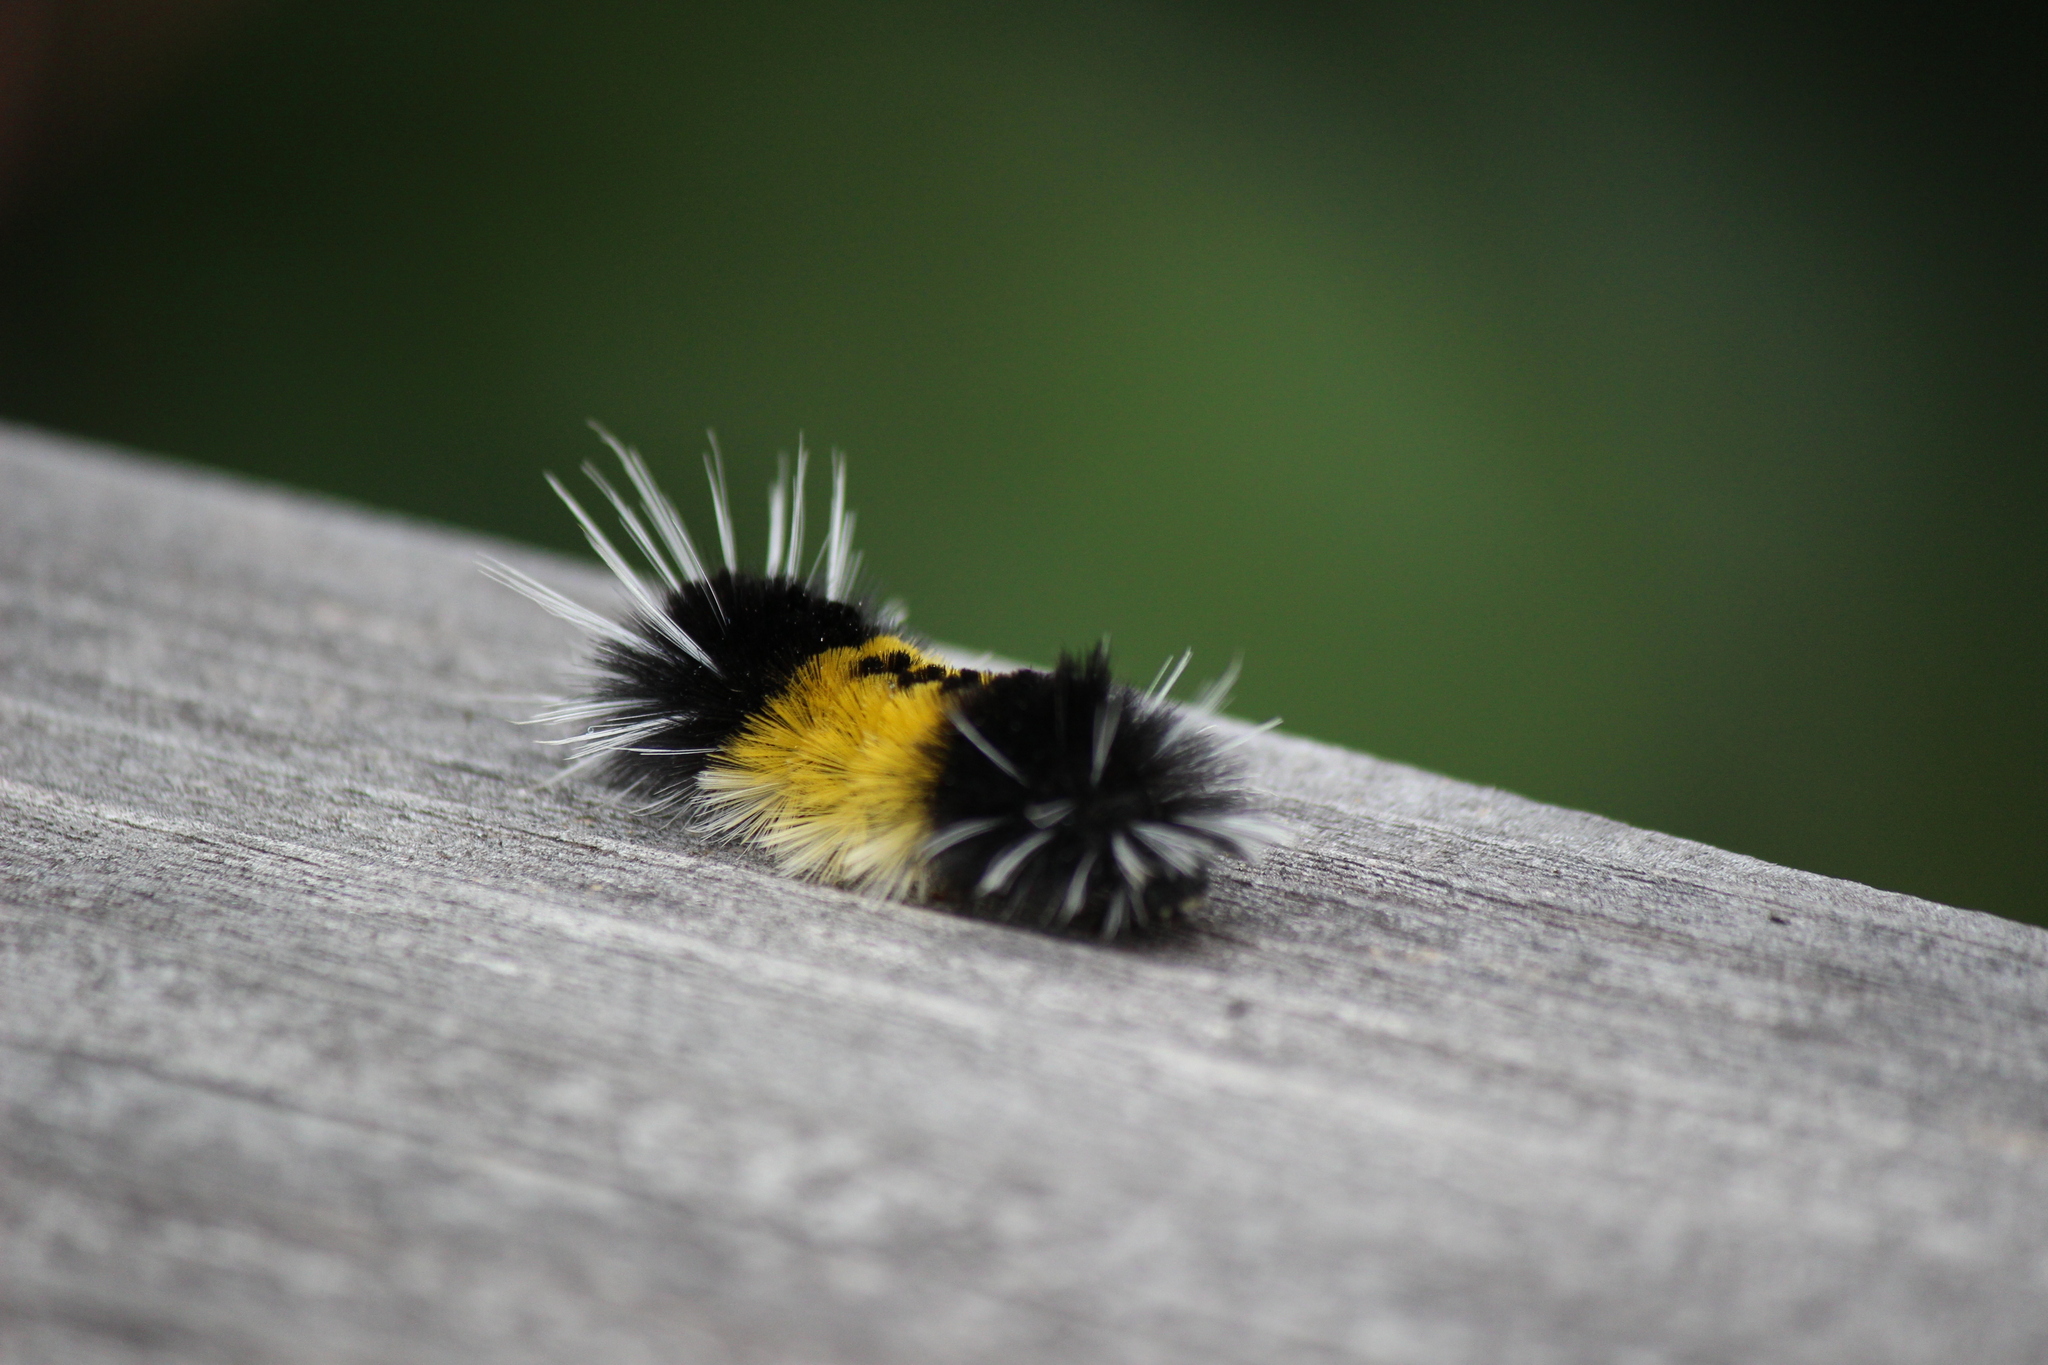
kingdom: Animalia
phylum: Arthropoda
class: Insecta
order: Lepidoptera
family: Erebidae
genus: Lophocampa
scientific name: Lophocampa maculata
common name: Spotted tussock moth
